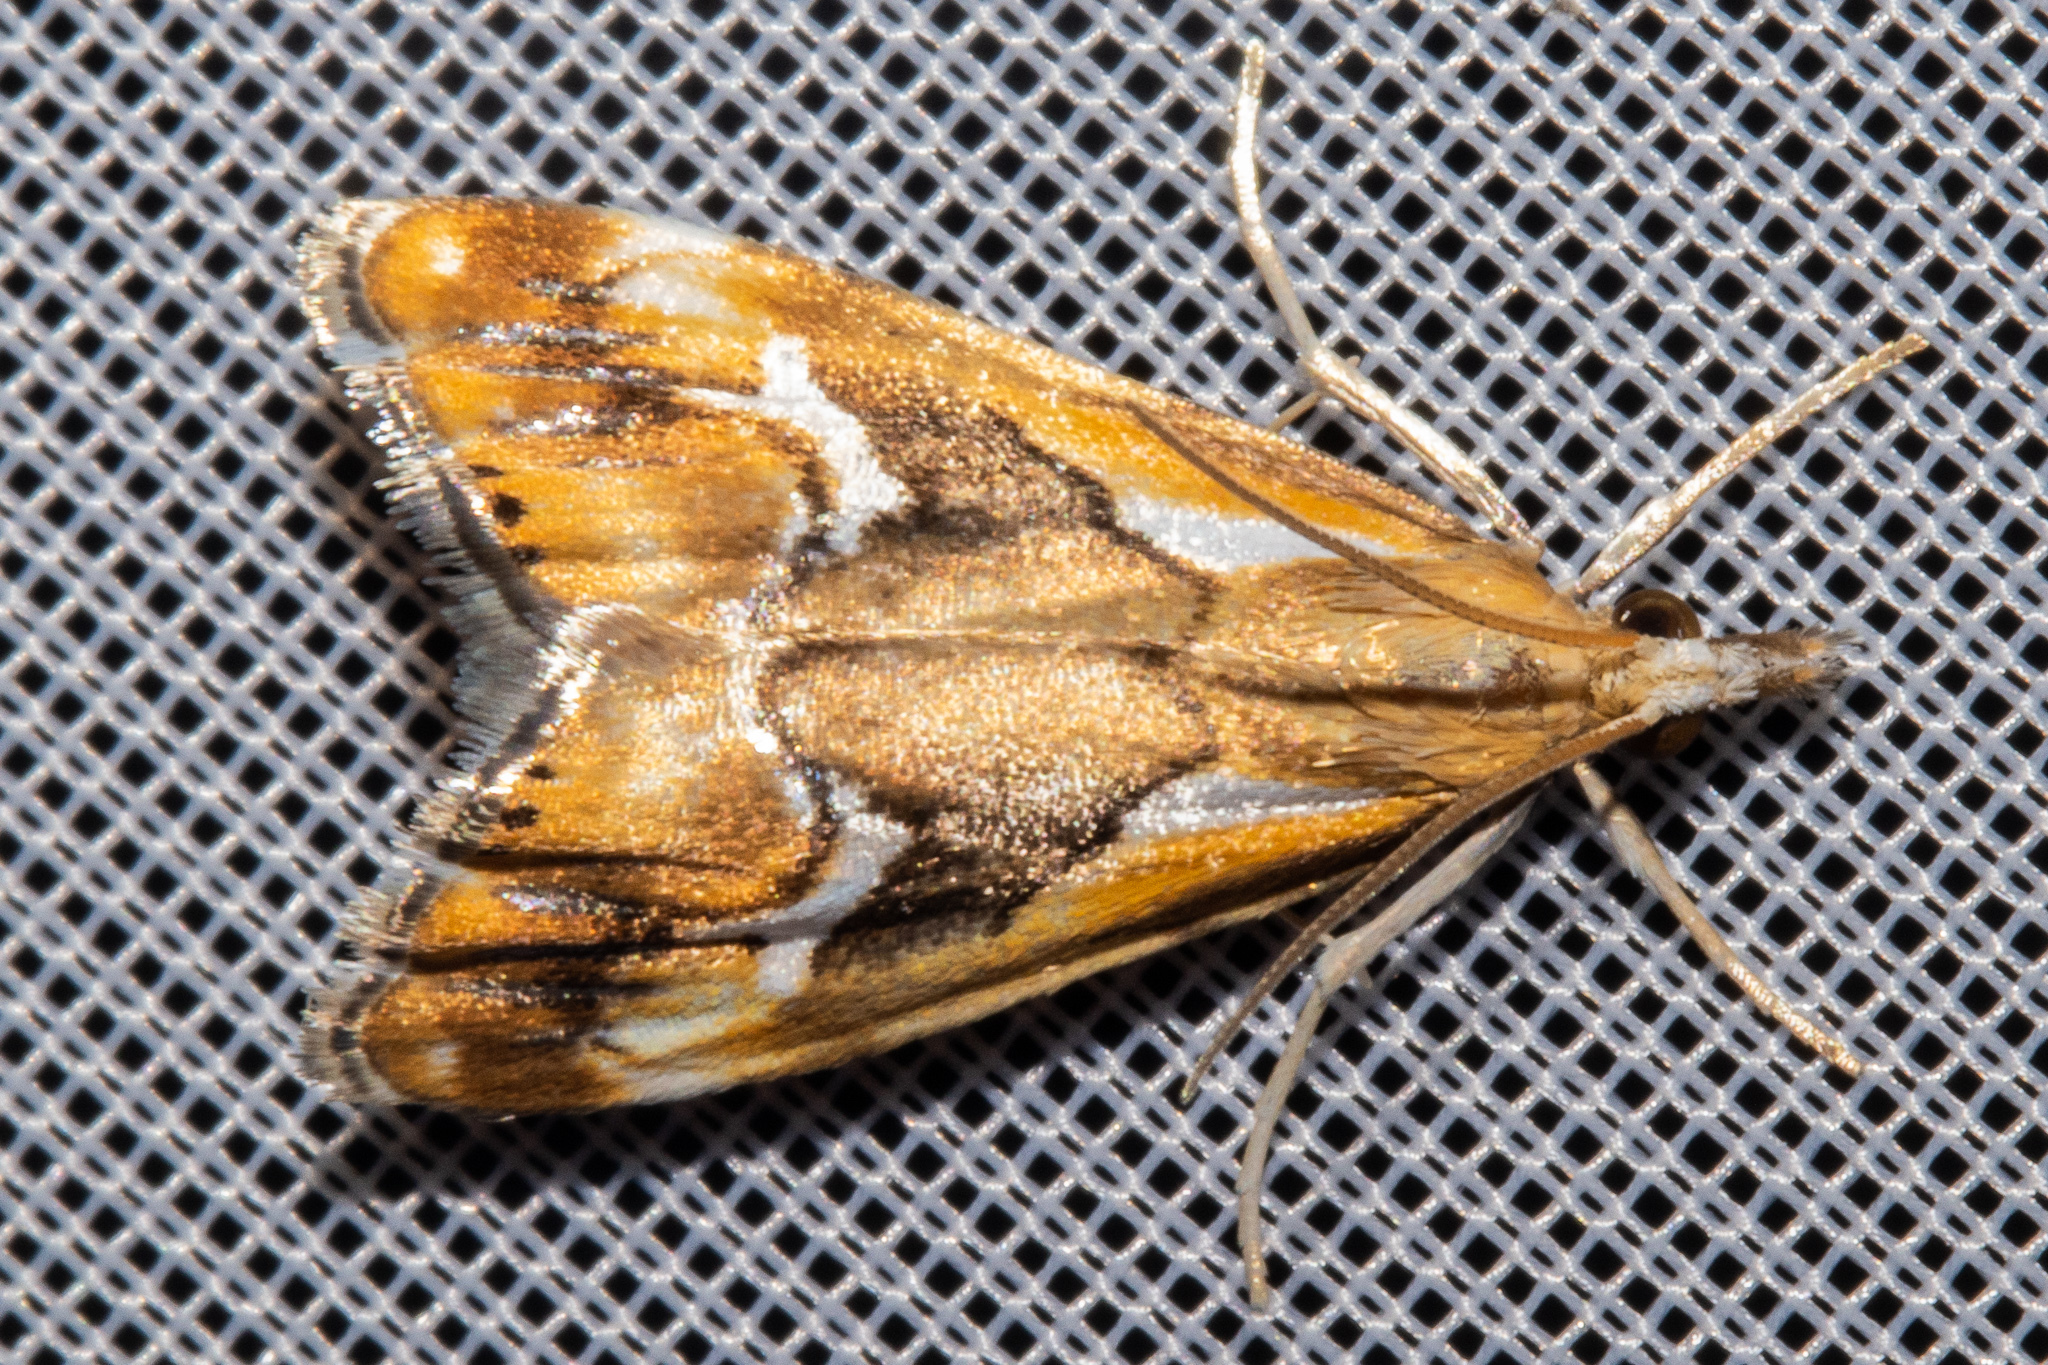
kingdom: Animalia
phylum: Arthropoda
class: Insecta
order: Lepidoptera
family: Crambidae
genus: Glaucocharis
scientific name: Glaucocharis interruptus
